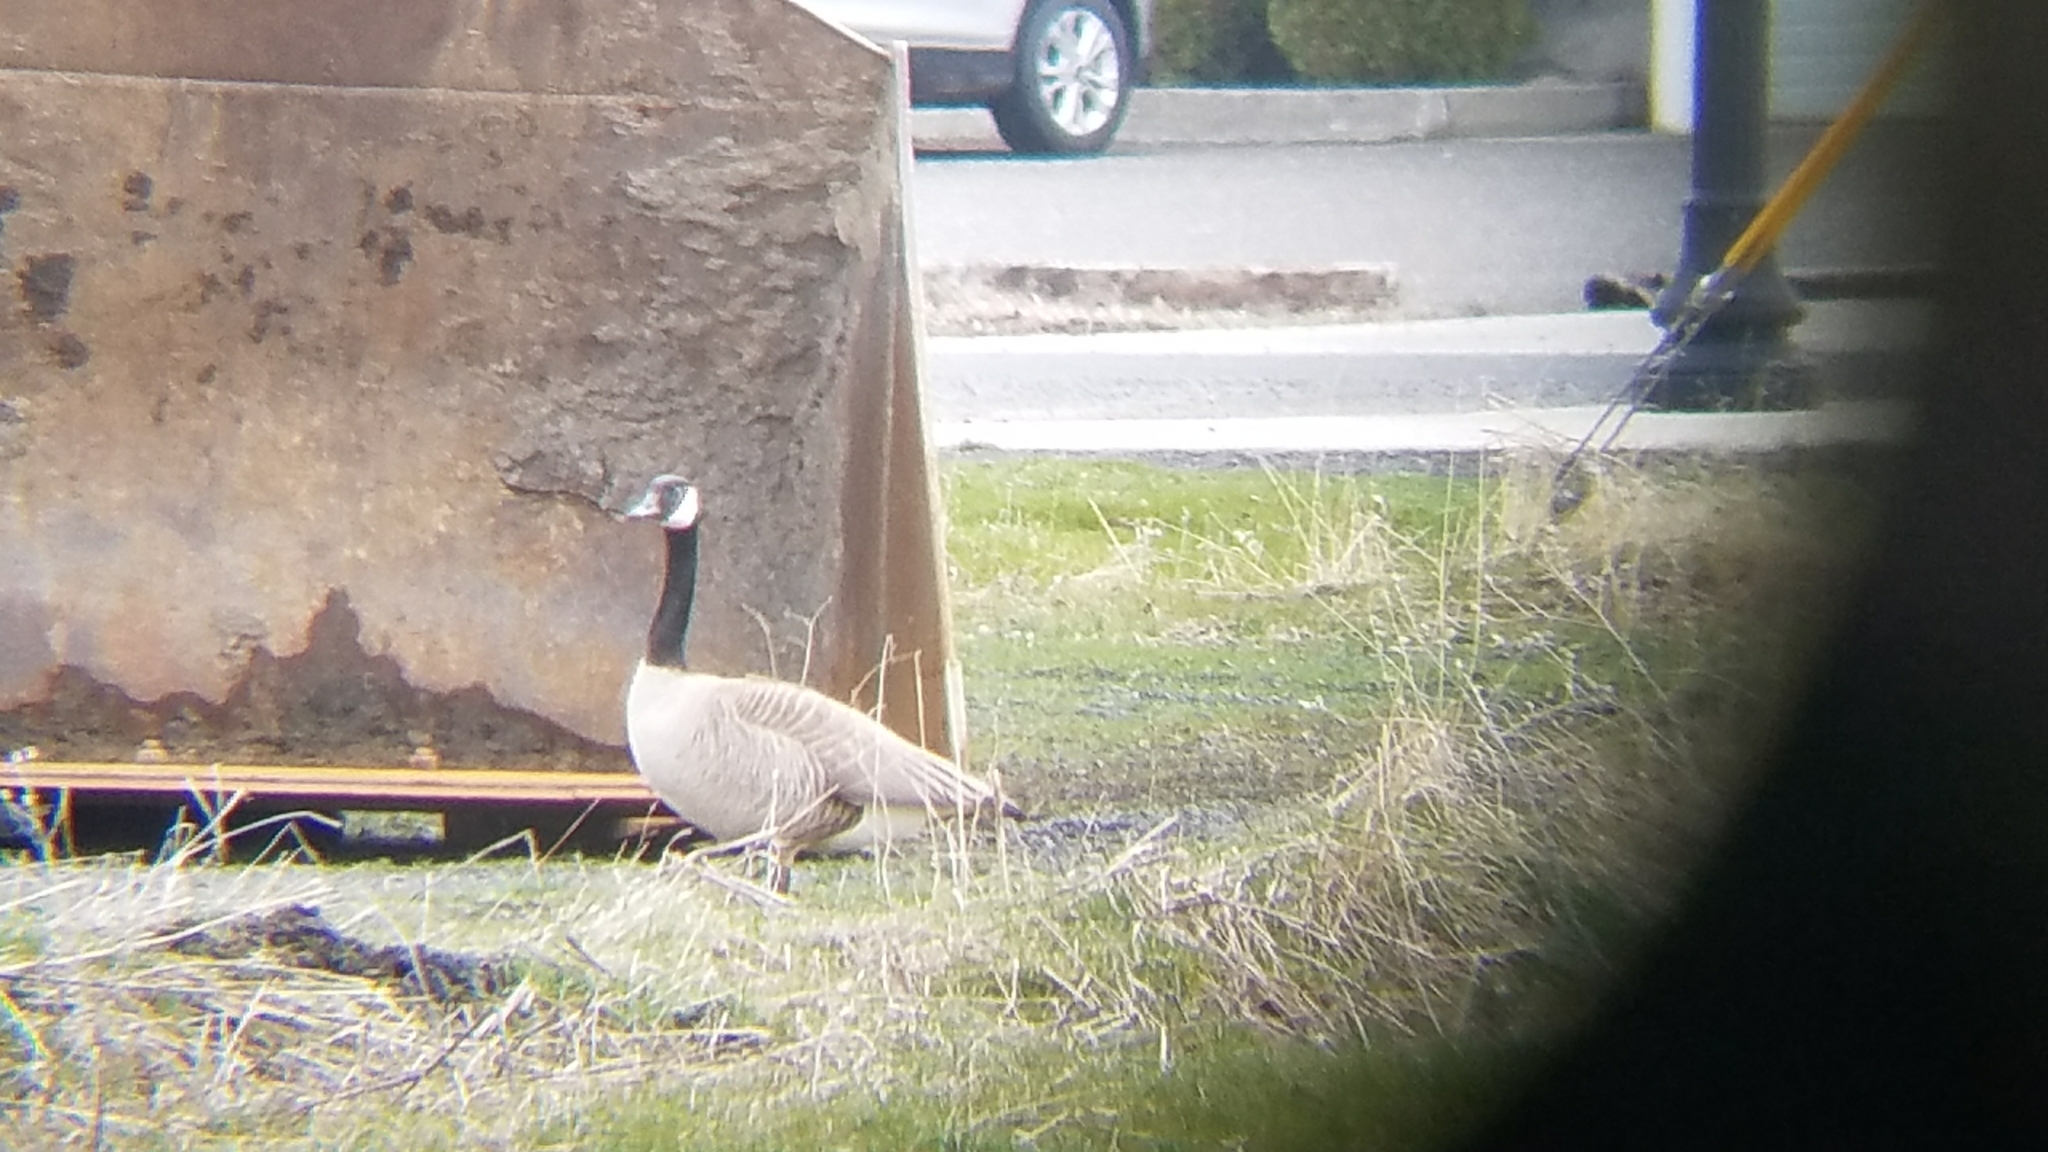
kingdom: Animalia
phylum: Chordata
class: Aves
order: Anseriformes
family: Anatidae
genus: Branta
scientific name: Branta canadensis
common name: Canada goose
